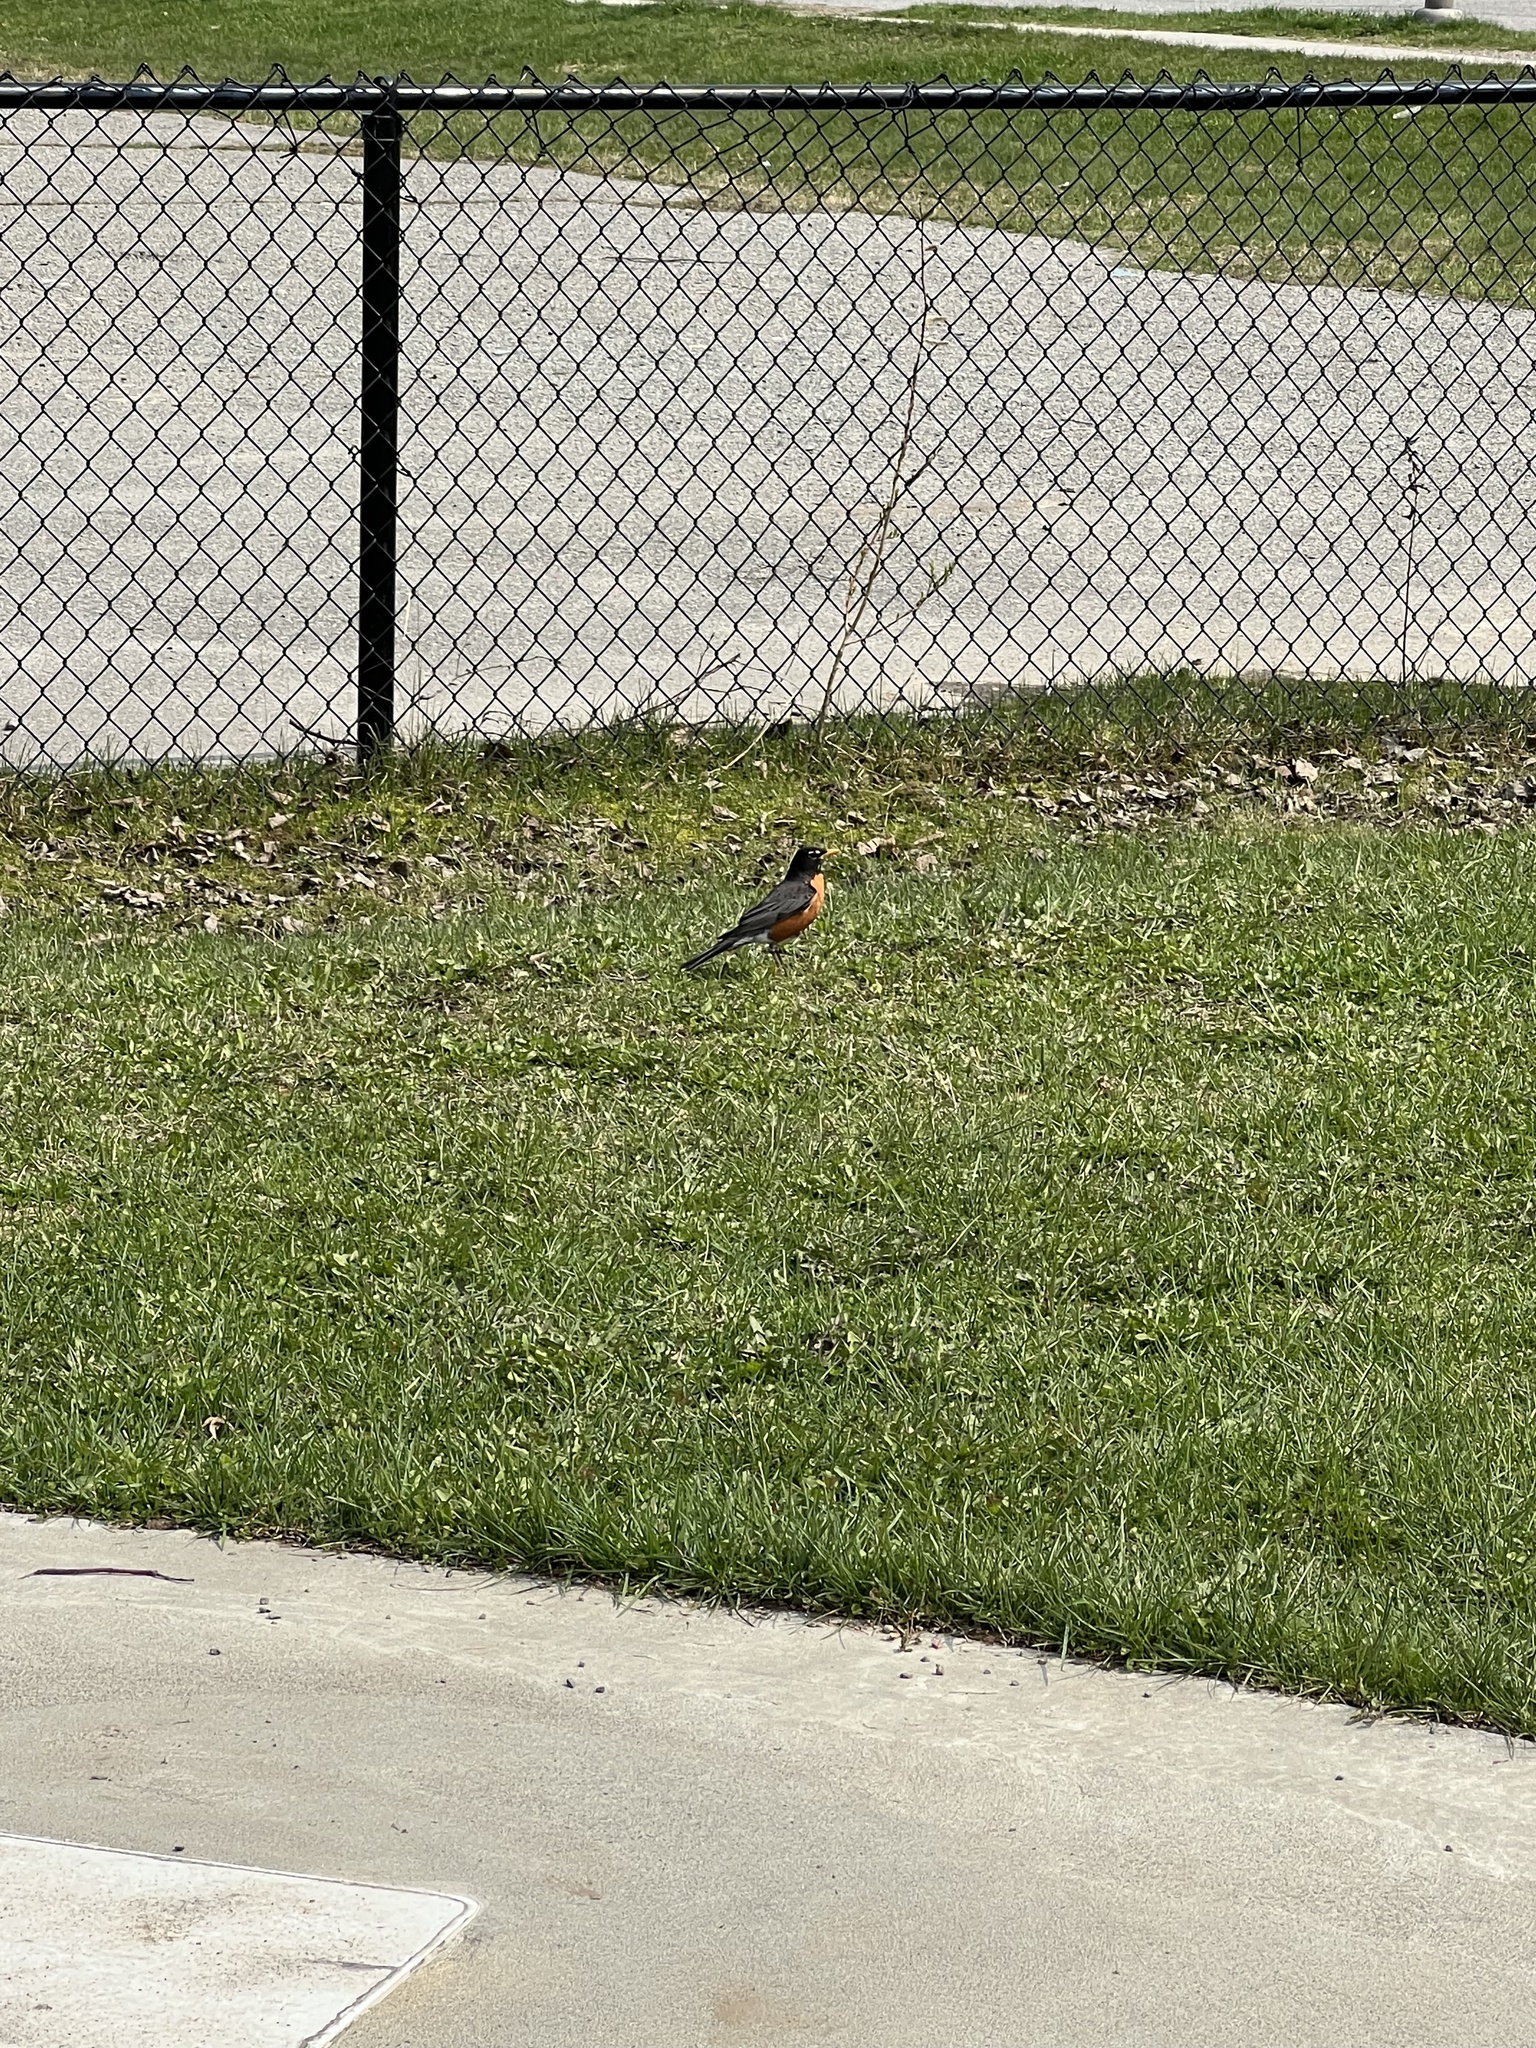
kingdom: Animalia
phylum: Chordata
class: Aves
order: Passeriformes
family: Turdidae
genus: Turdus
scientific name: Turdus migratorius
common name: American robin
